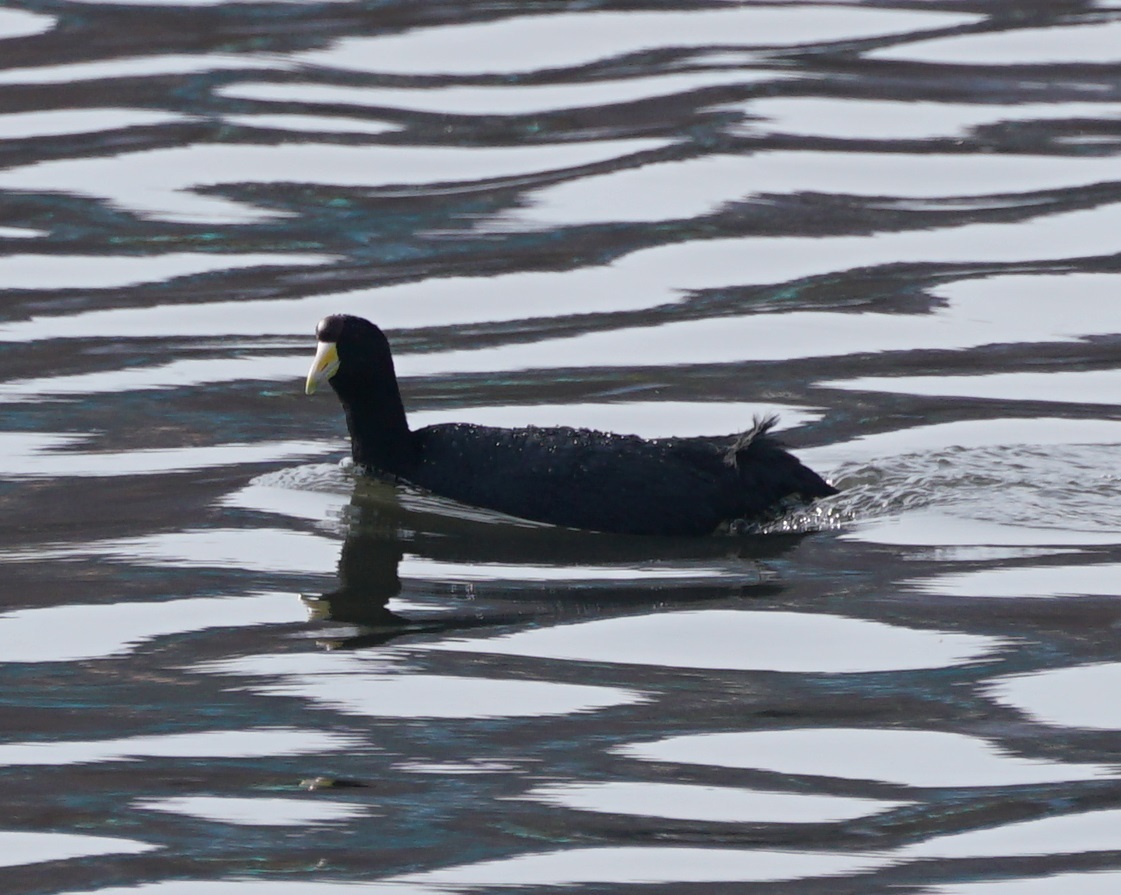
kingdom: Animalia
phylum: Chordata
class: Aves
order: Gruiformes
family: Rallidae
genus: Fulica
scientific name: Fulica ardesiaca
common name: Andean coot
